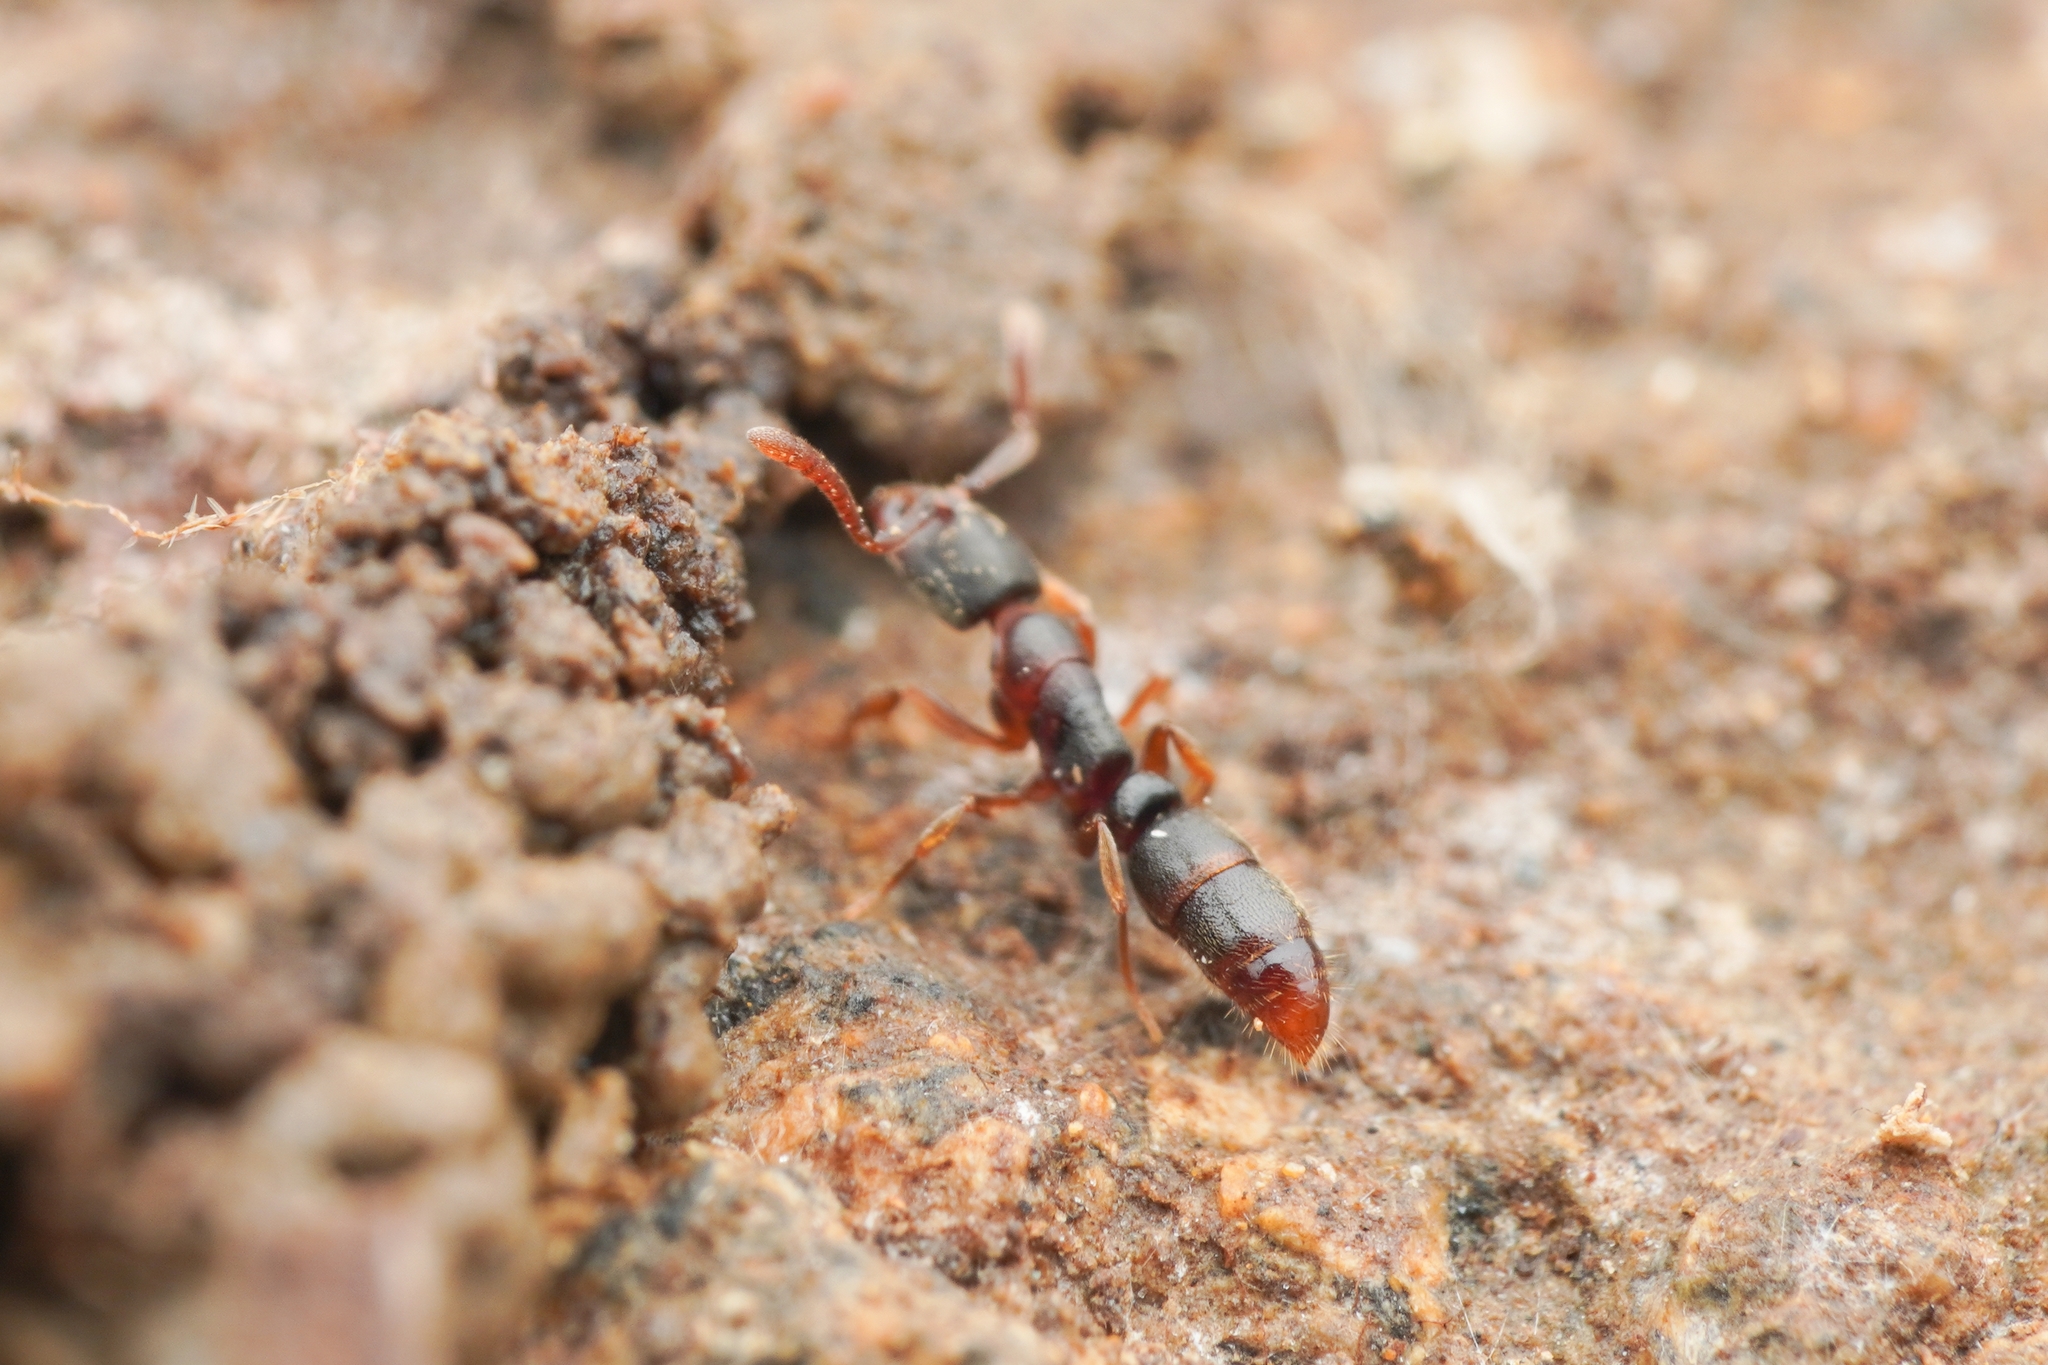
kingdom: Animalia
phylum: Arthropoda
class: Insecta
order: Hymenoptera
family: Formicidae
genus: Ponera
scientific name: Ponera scabra
